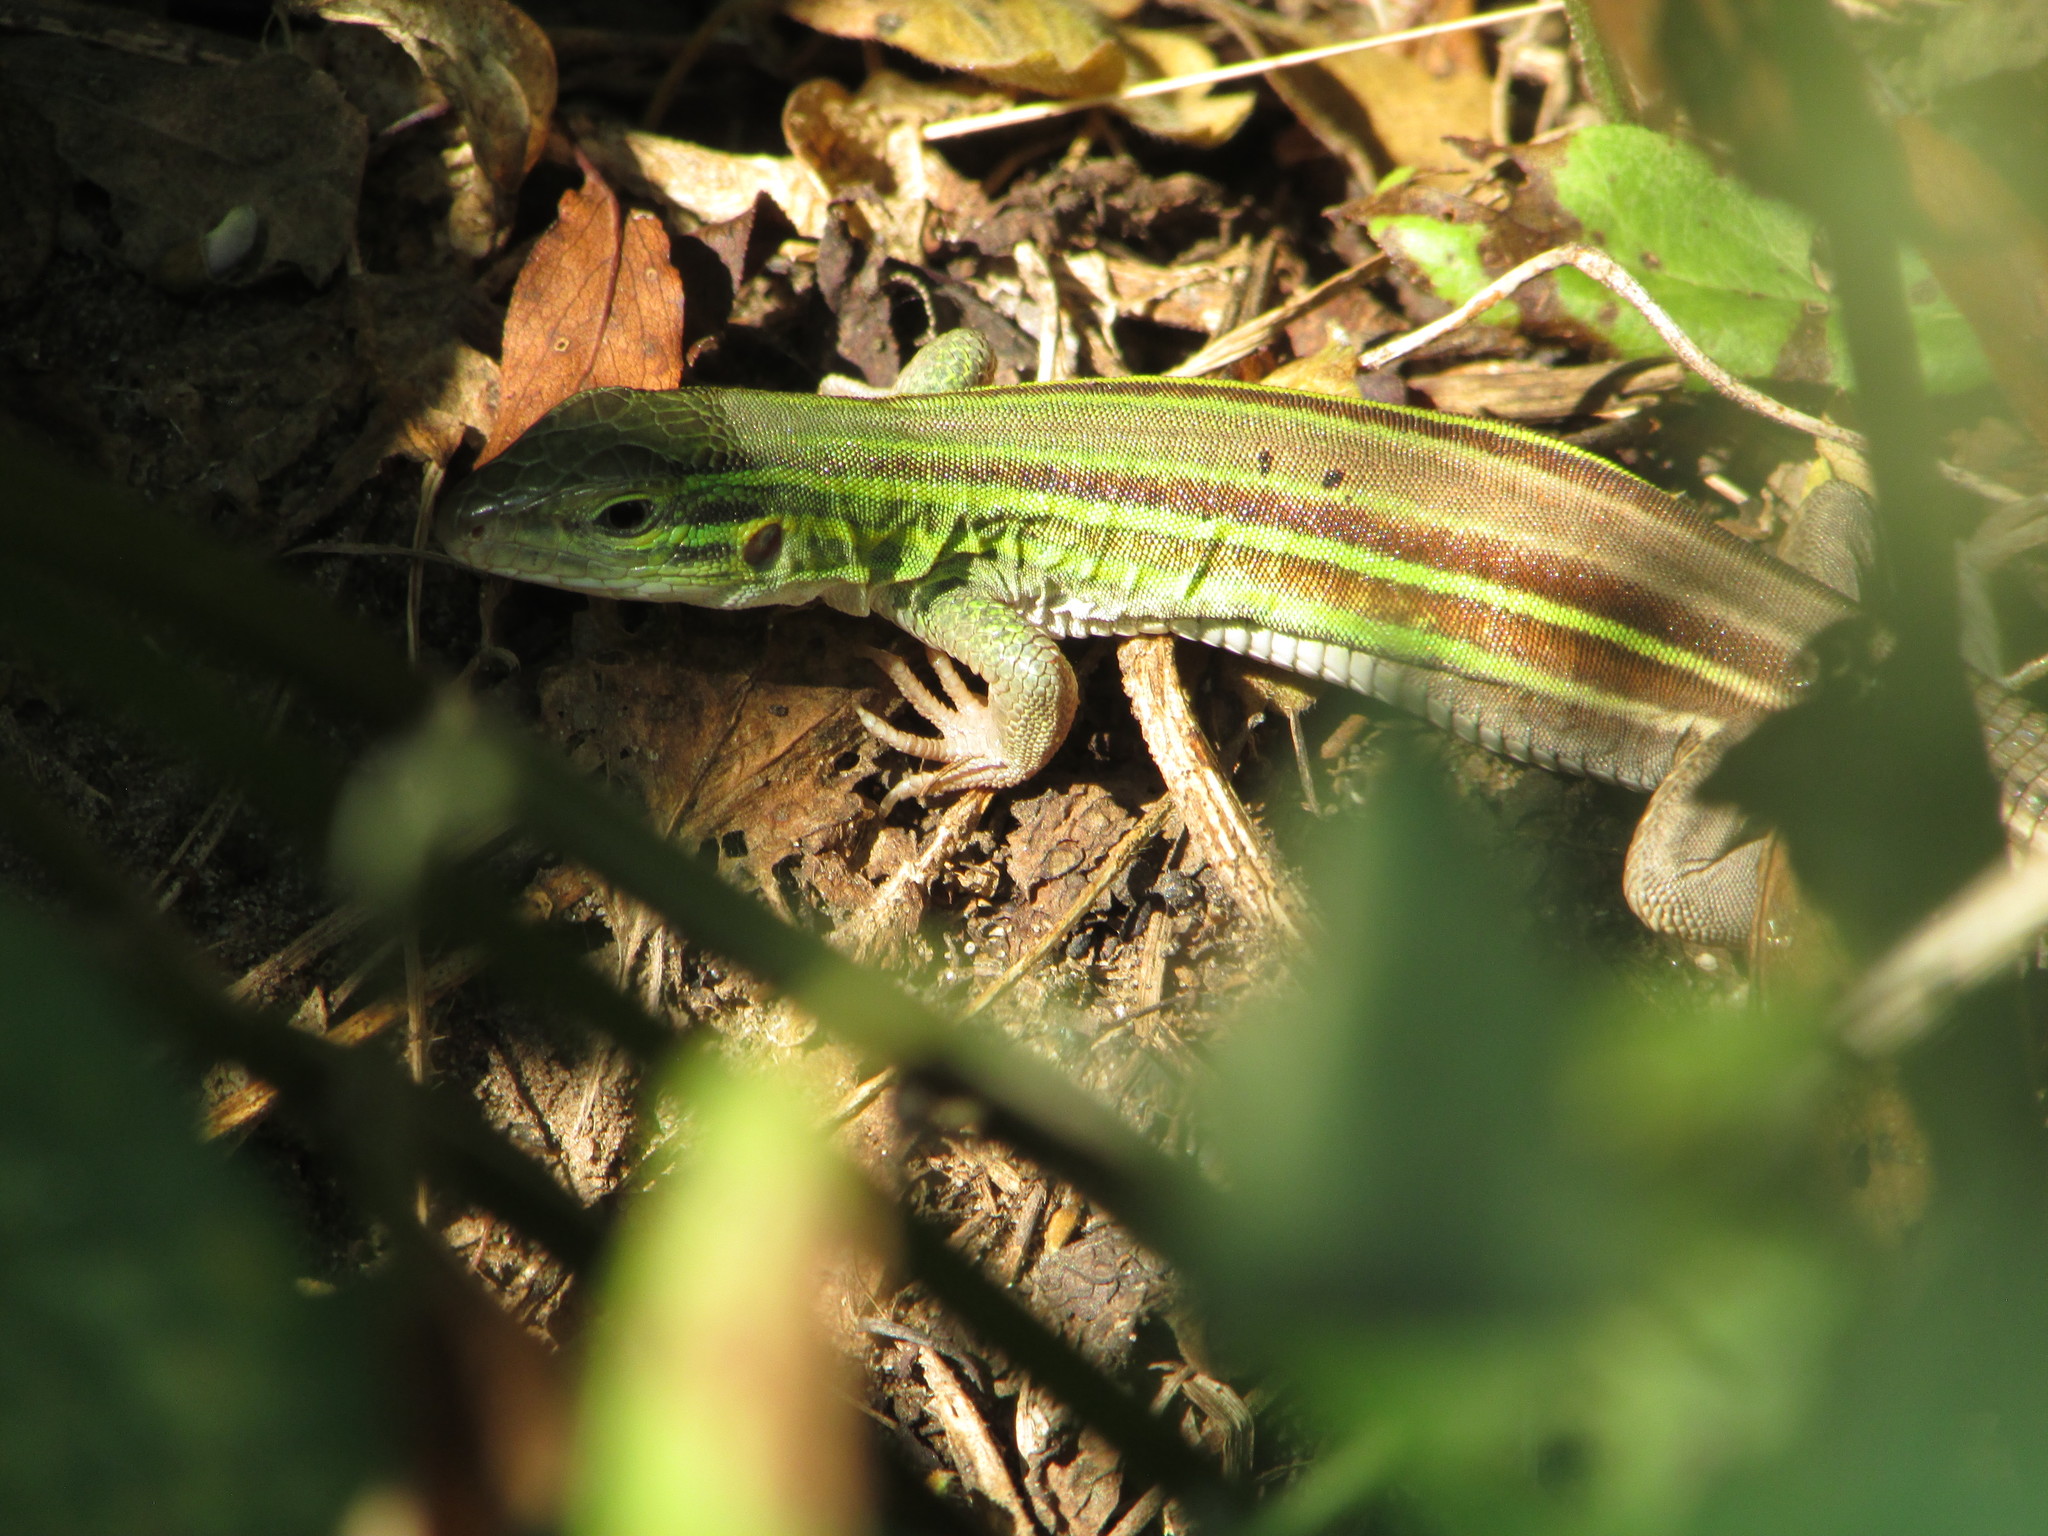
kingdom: Animalia
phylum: Chordata
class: Squamata
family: Teiidae
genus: Aspidoscelis
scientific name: Aspidoscelis sexlineatus
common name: Six-lined racerunner
